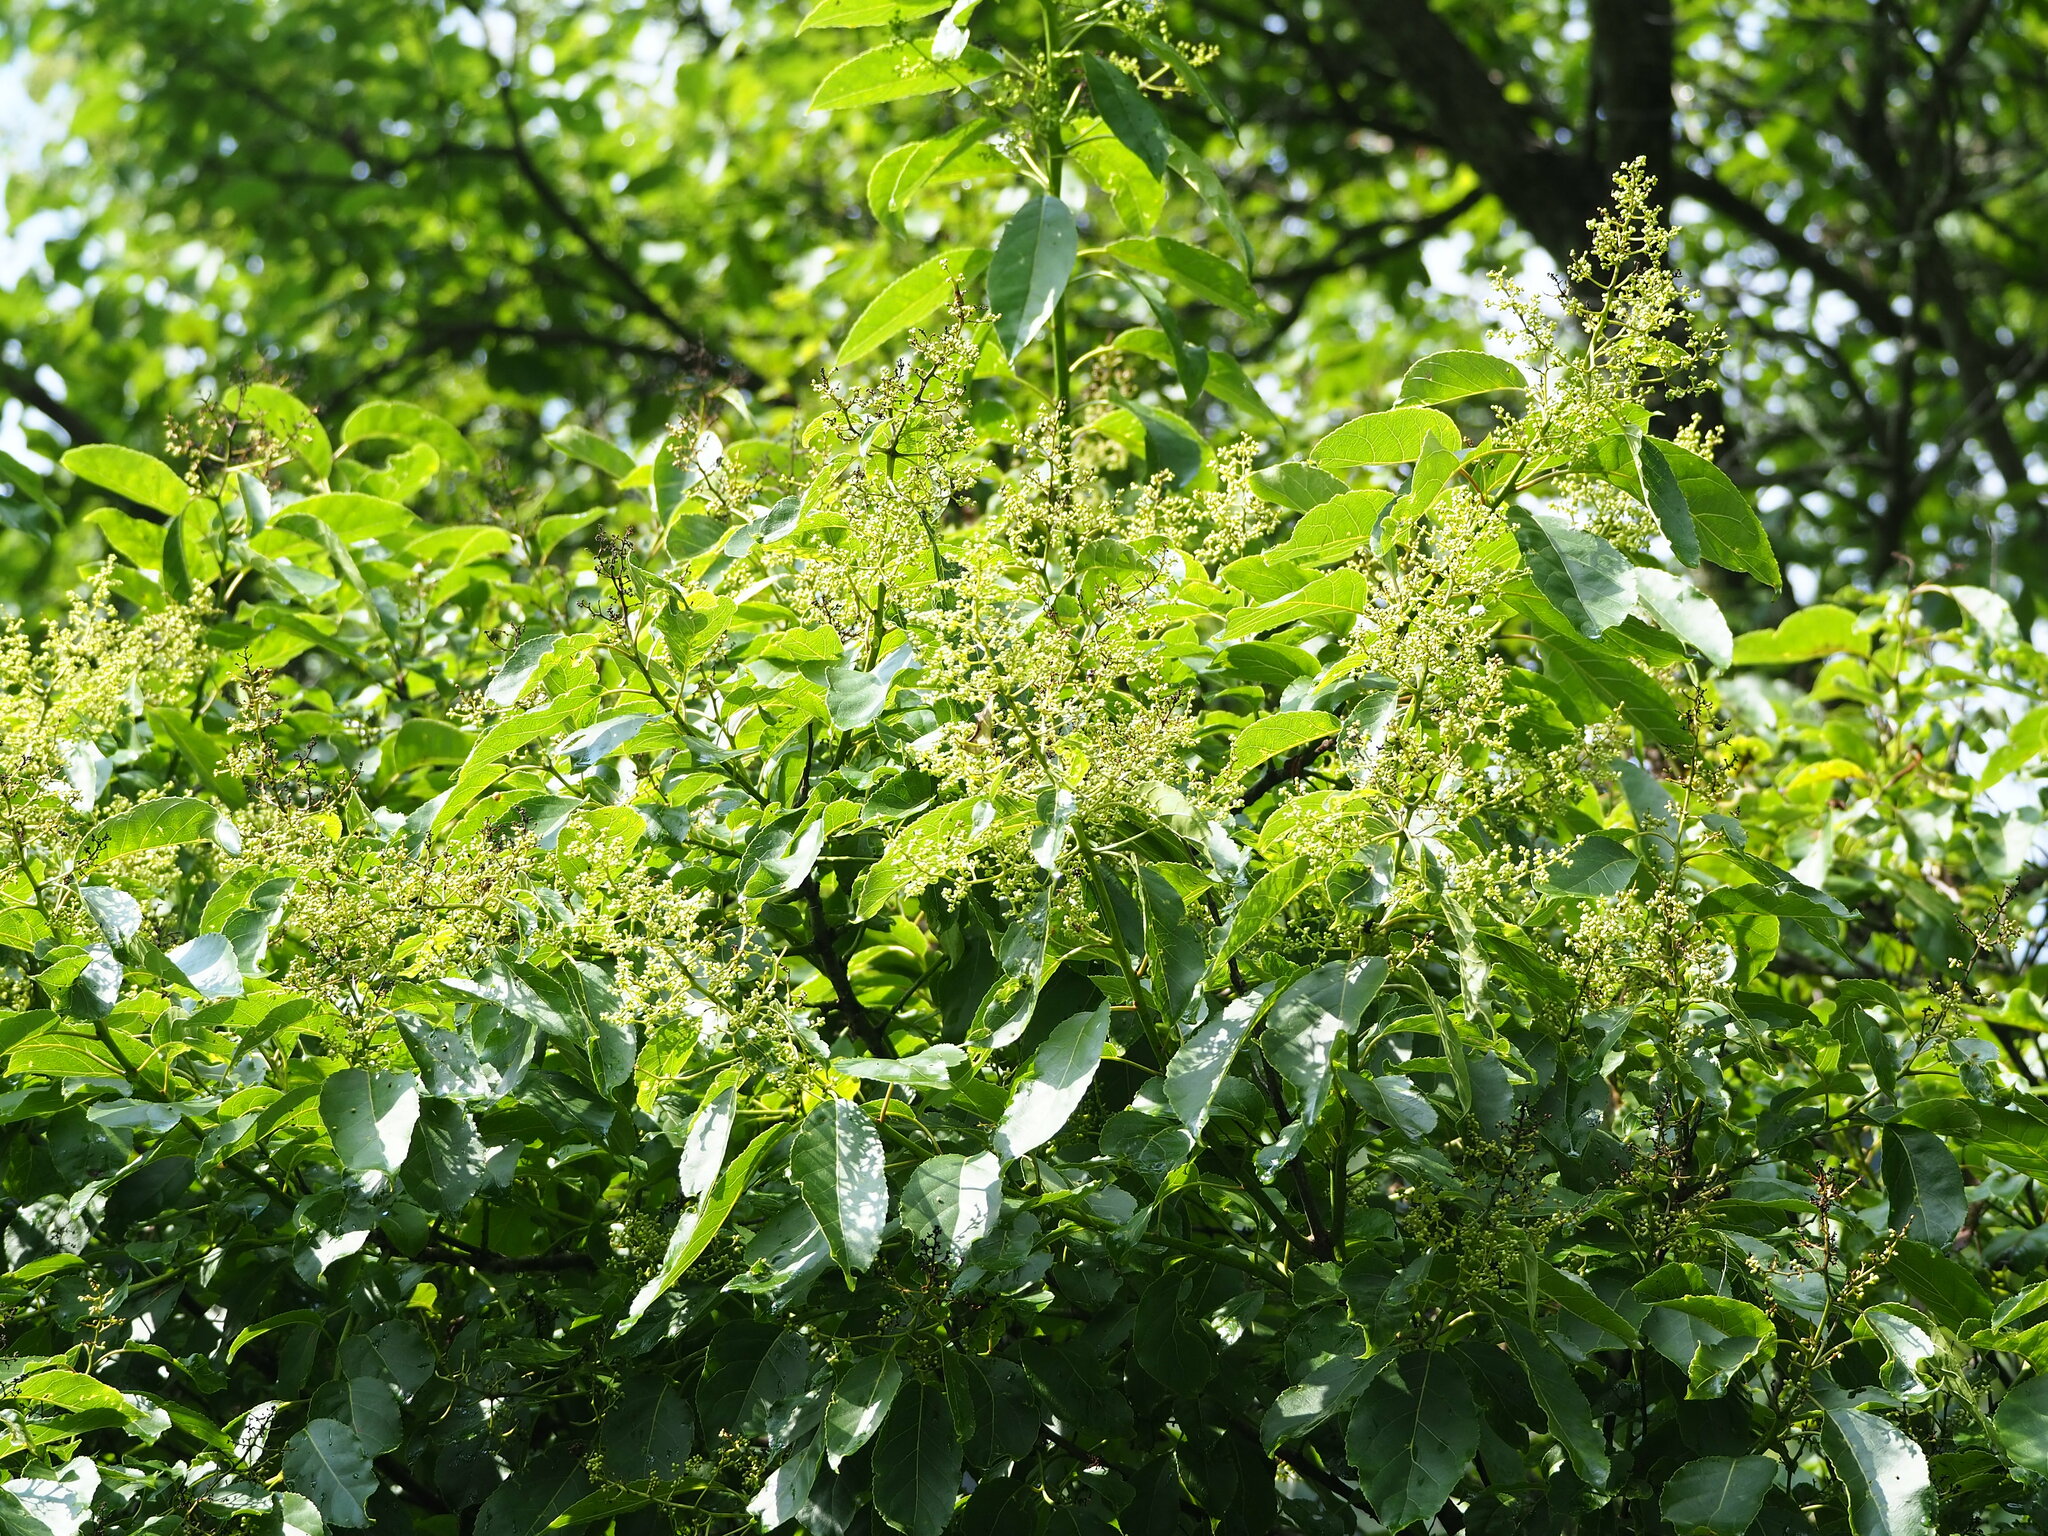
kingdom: Plantae
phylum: Tracheophyta
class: Magnoliopsida
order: Boraginales
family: Ehretiaceae
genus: Ehretia
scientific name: Ehretia acuminata
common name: Kodo wood
